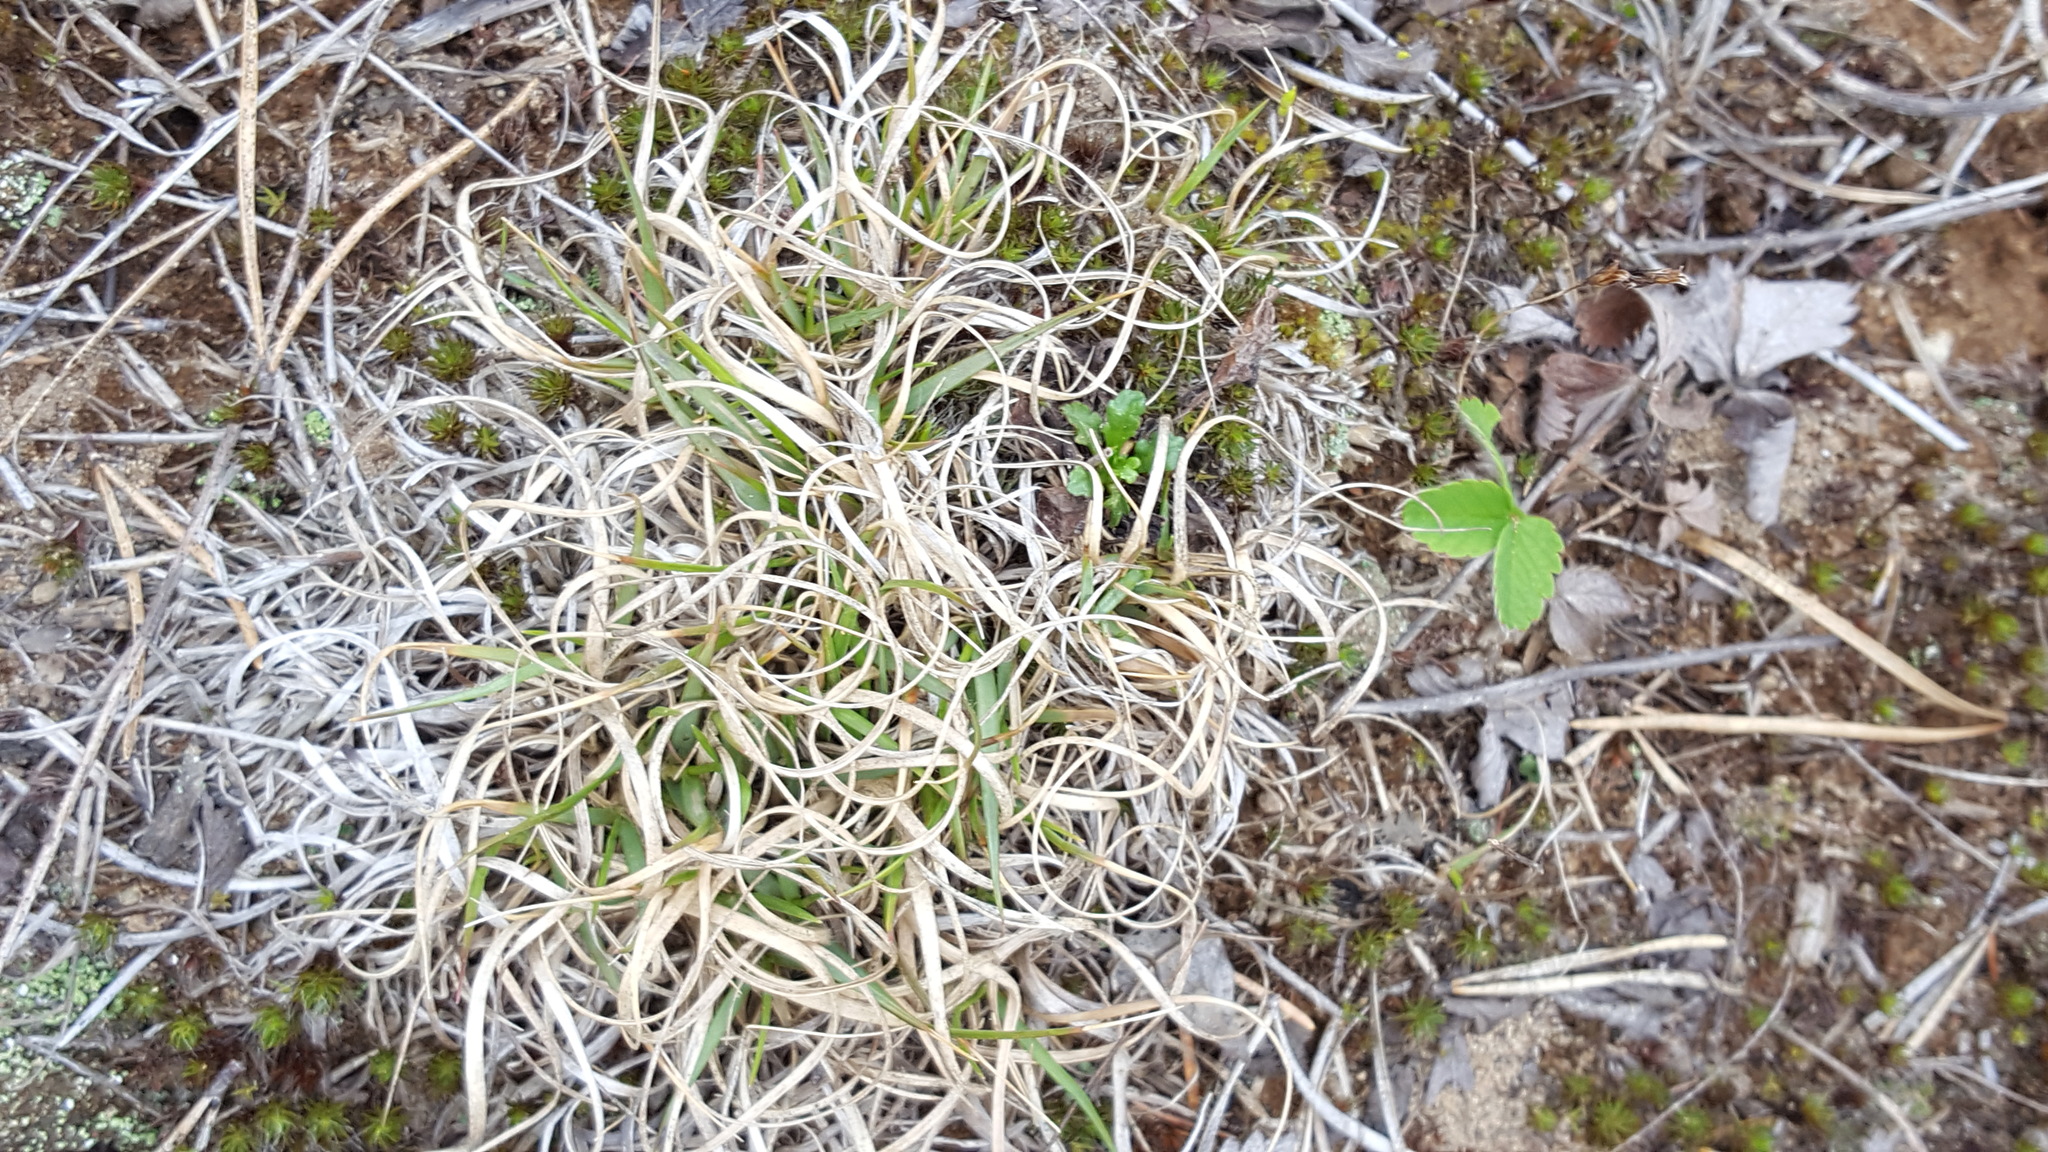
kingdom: Plantae
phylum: Tracheophyta
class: Liliopsida
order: Poales
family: Poaceae
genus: Danthonia
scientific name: Danthonia spicata
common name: Common wild oatgrass
